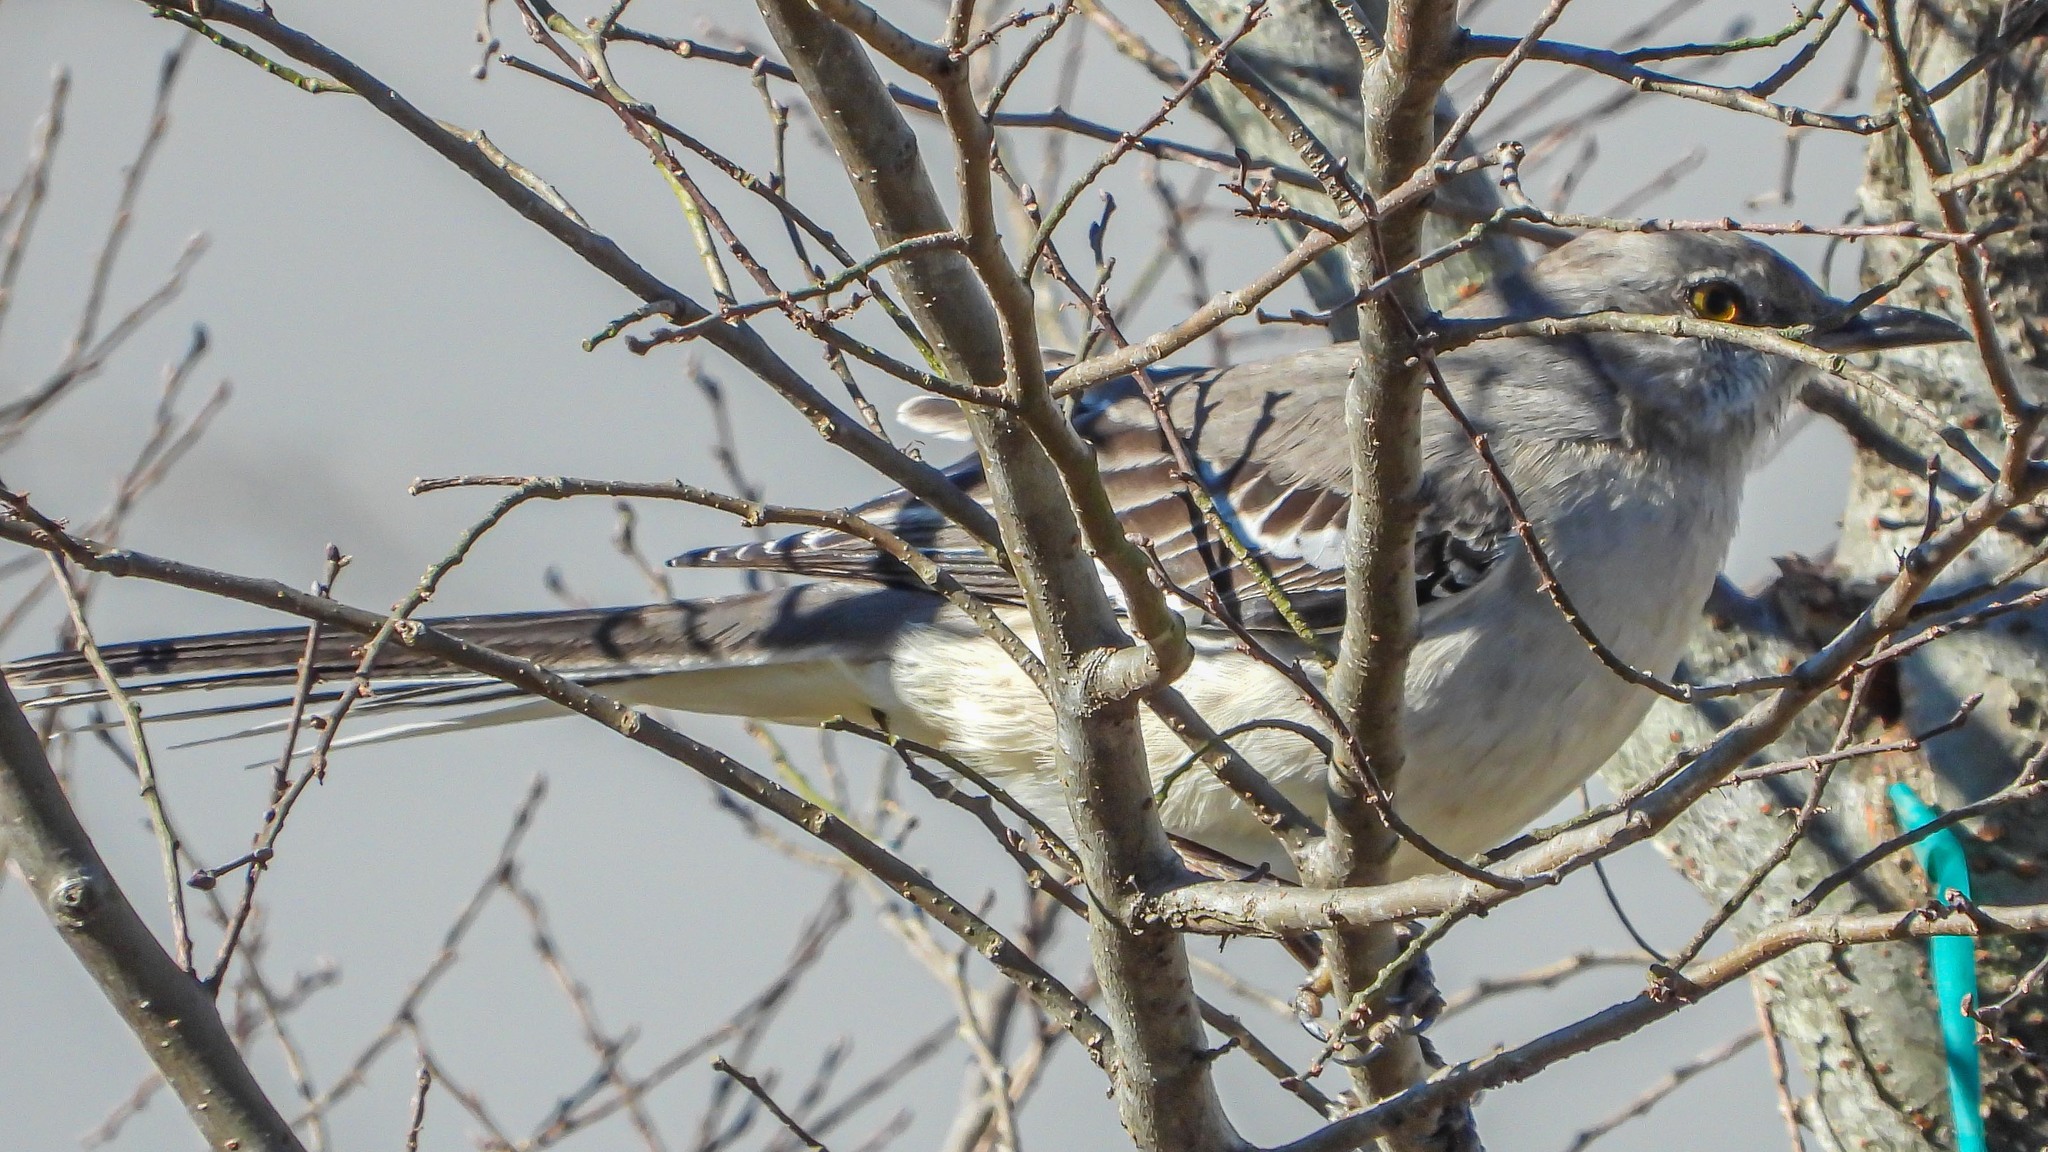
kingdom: Animalia
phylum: Chordata
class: Aves
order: Passeriformes
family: Mimidae
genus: Mimus
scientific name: Mimus polyglottos
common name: Northern mockingbird
